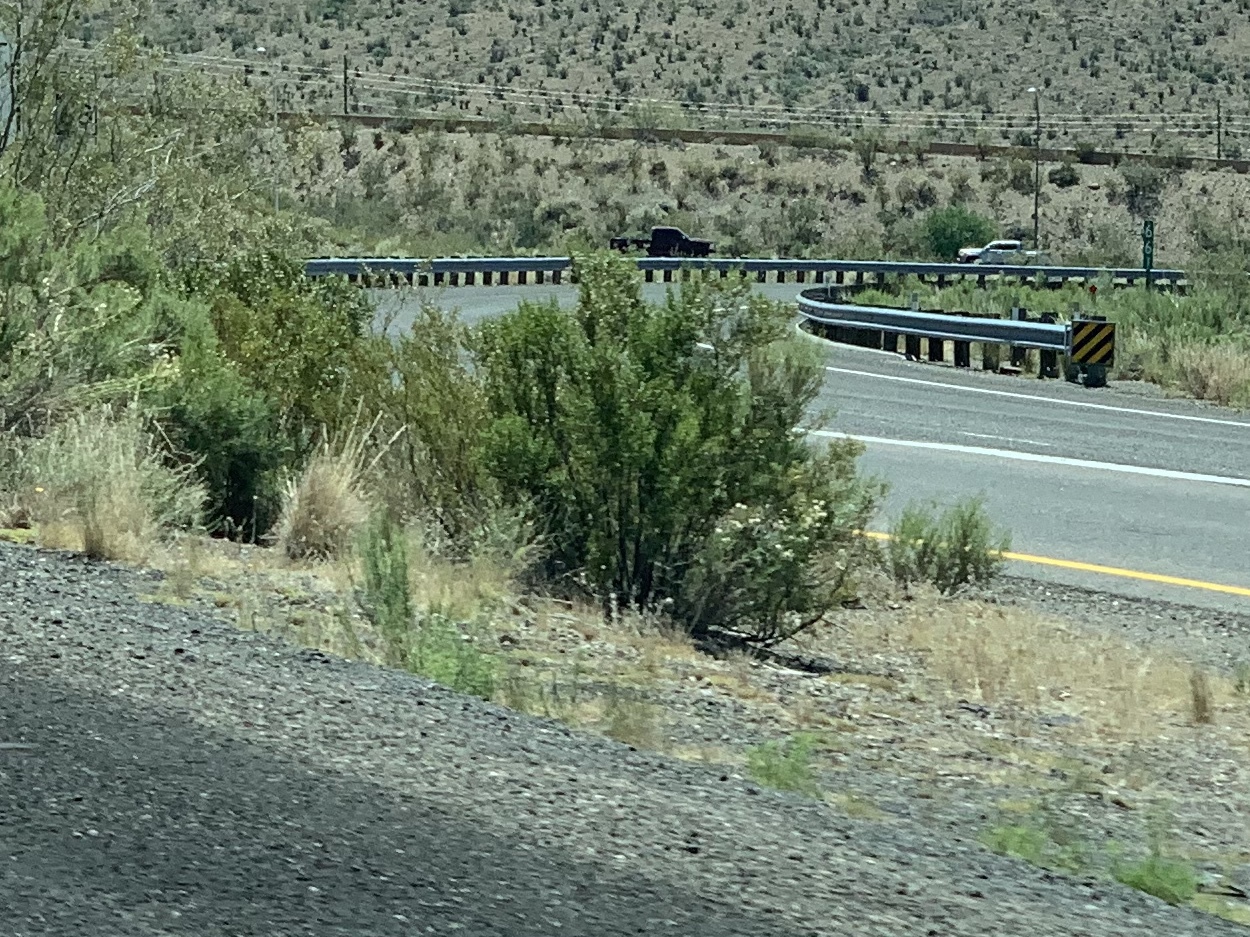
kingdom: Plantae
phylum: Tracheophyta
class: Magnoliopsida
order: Zygophyllales
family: Zygophyllaceae
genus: Larrea
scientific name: Larrea tridentata
